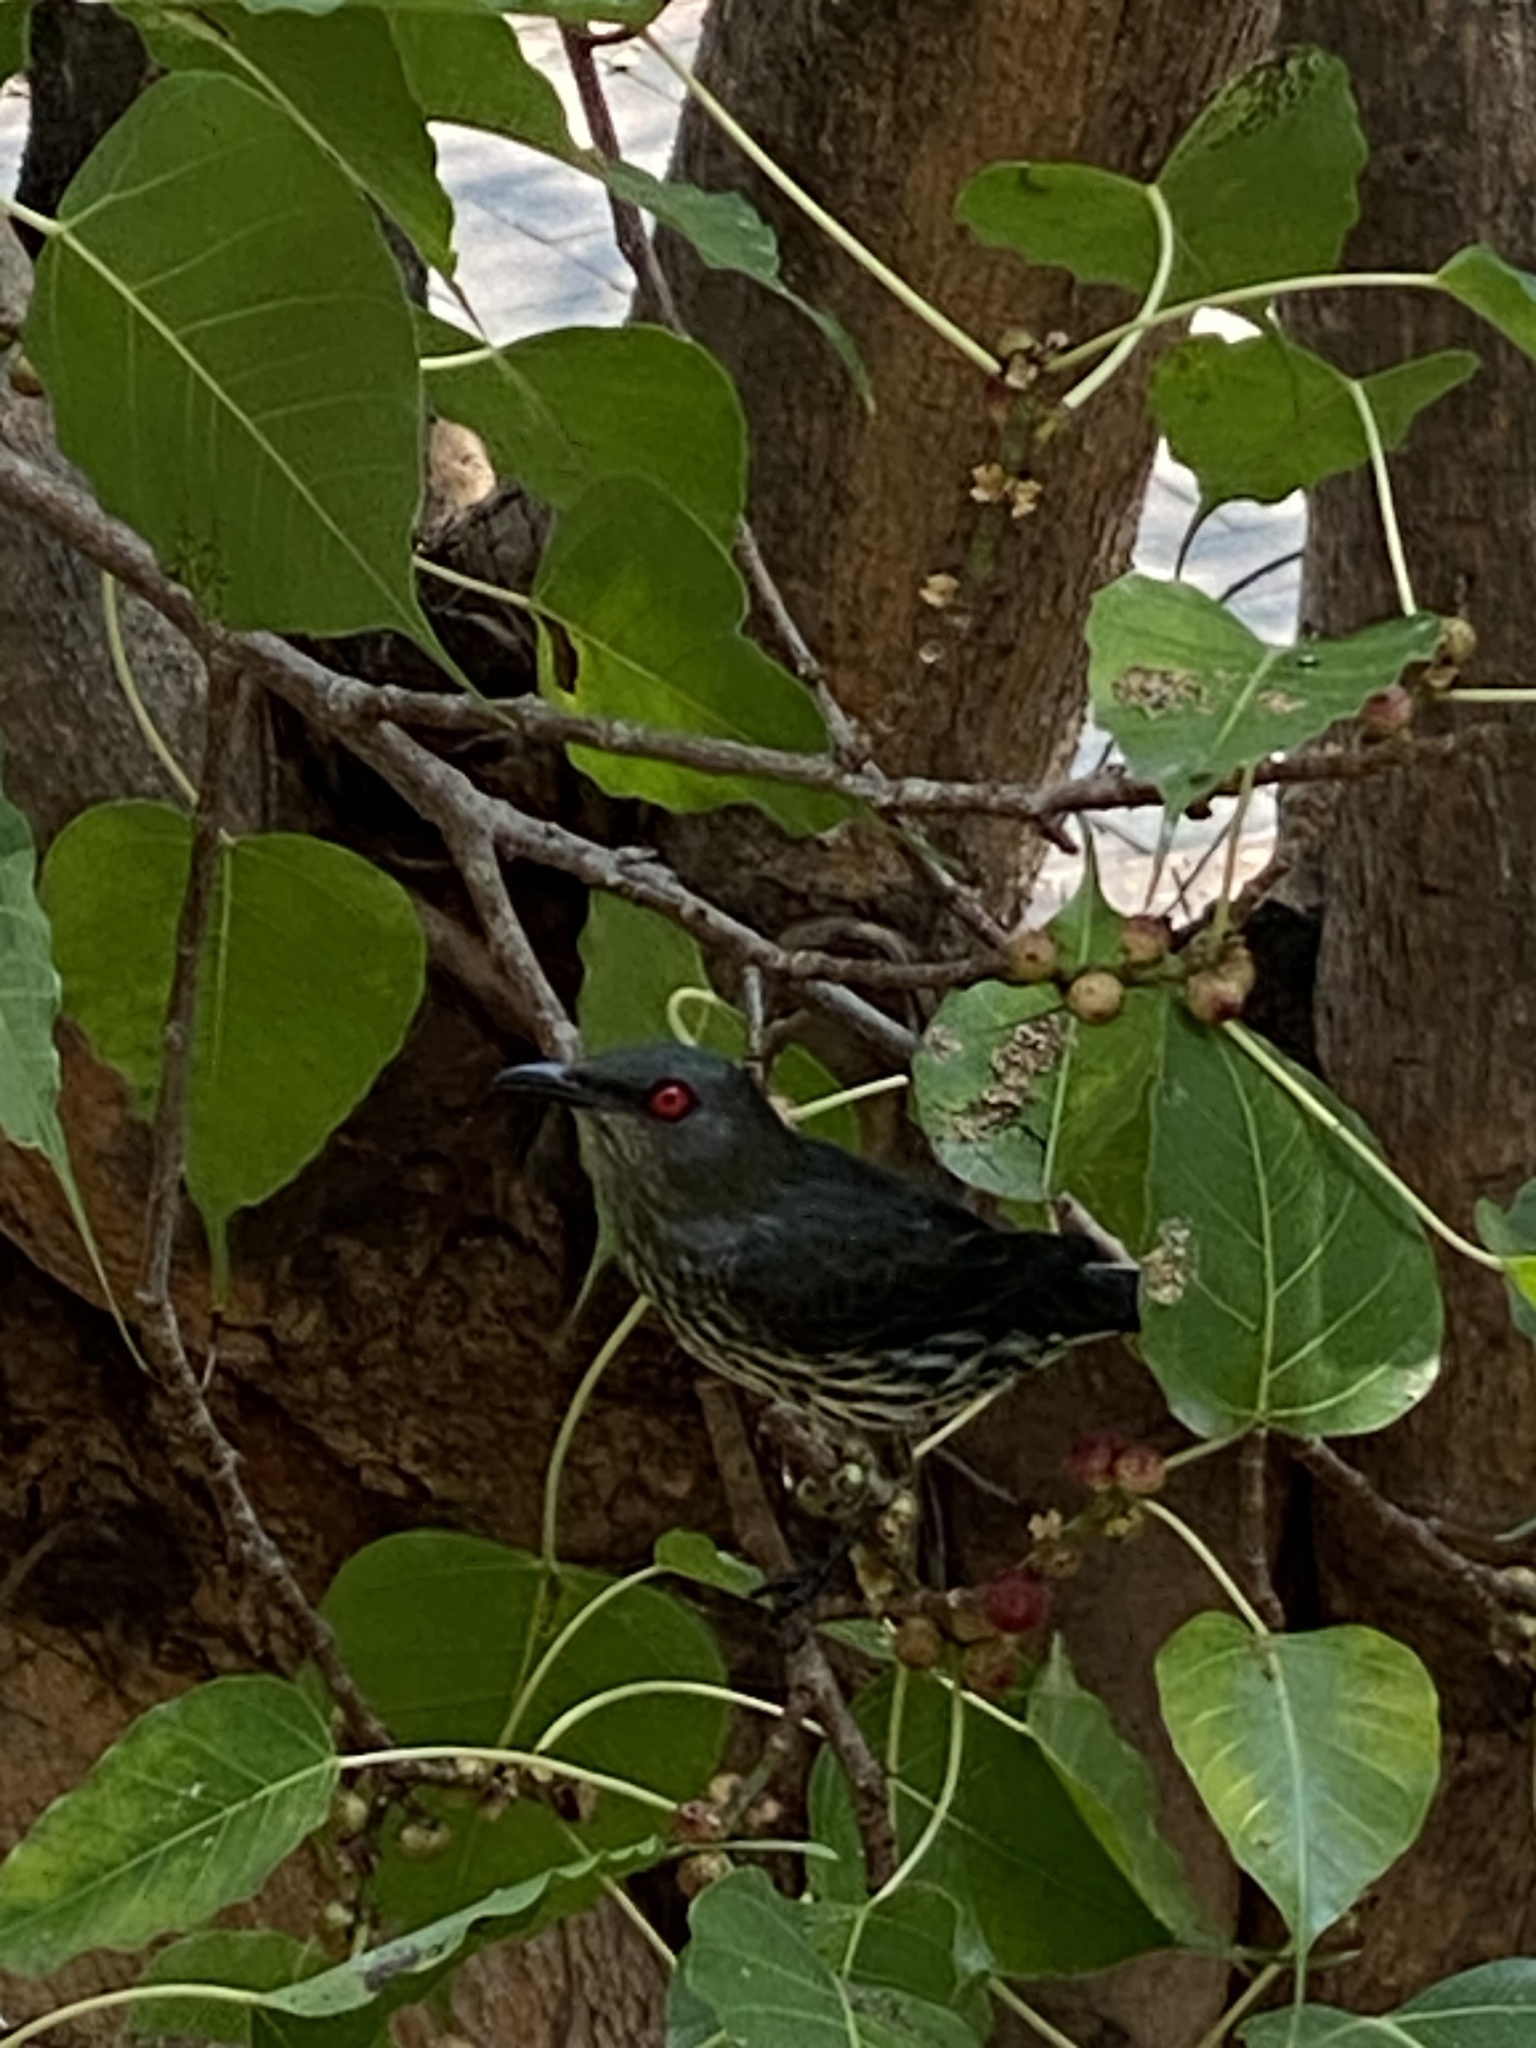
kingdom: Animalia
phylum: Chordata
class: Aves
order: Passeriformes
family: Sturnidae
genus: Aplonis
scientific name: Aplonis panayensis
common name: Asian glossy starling
